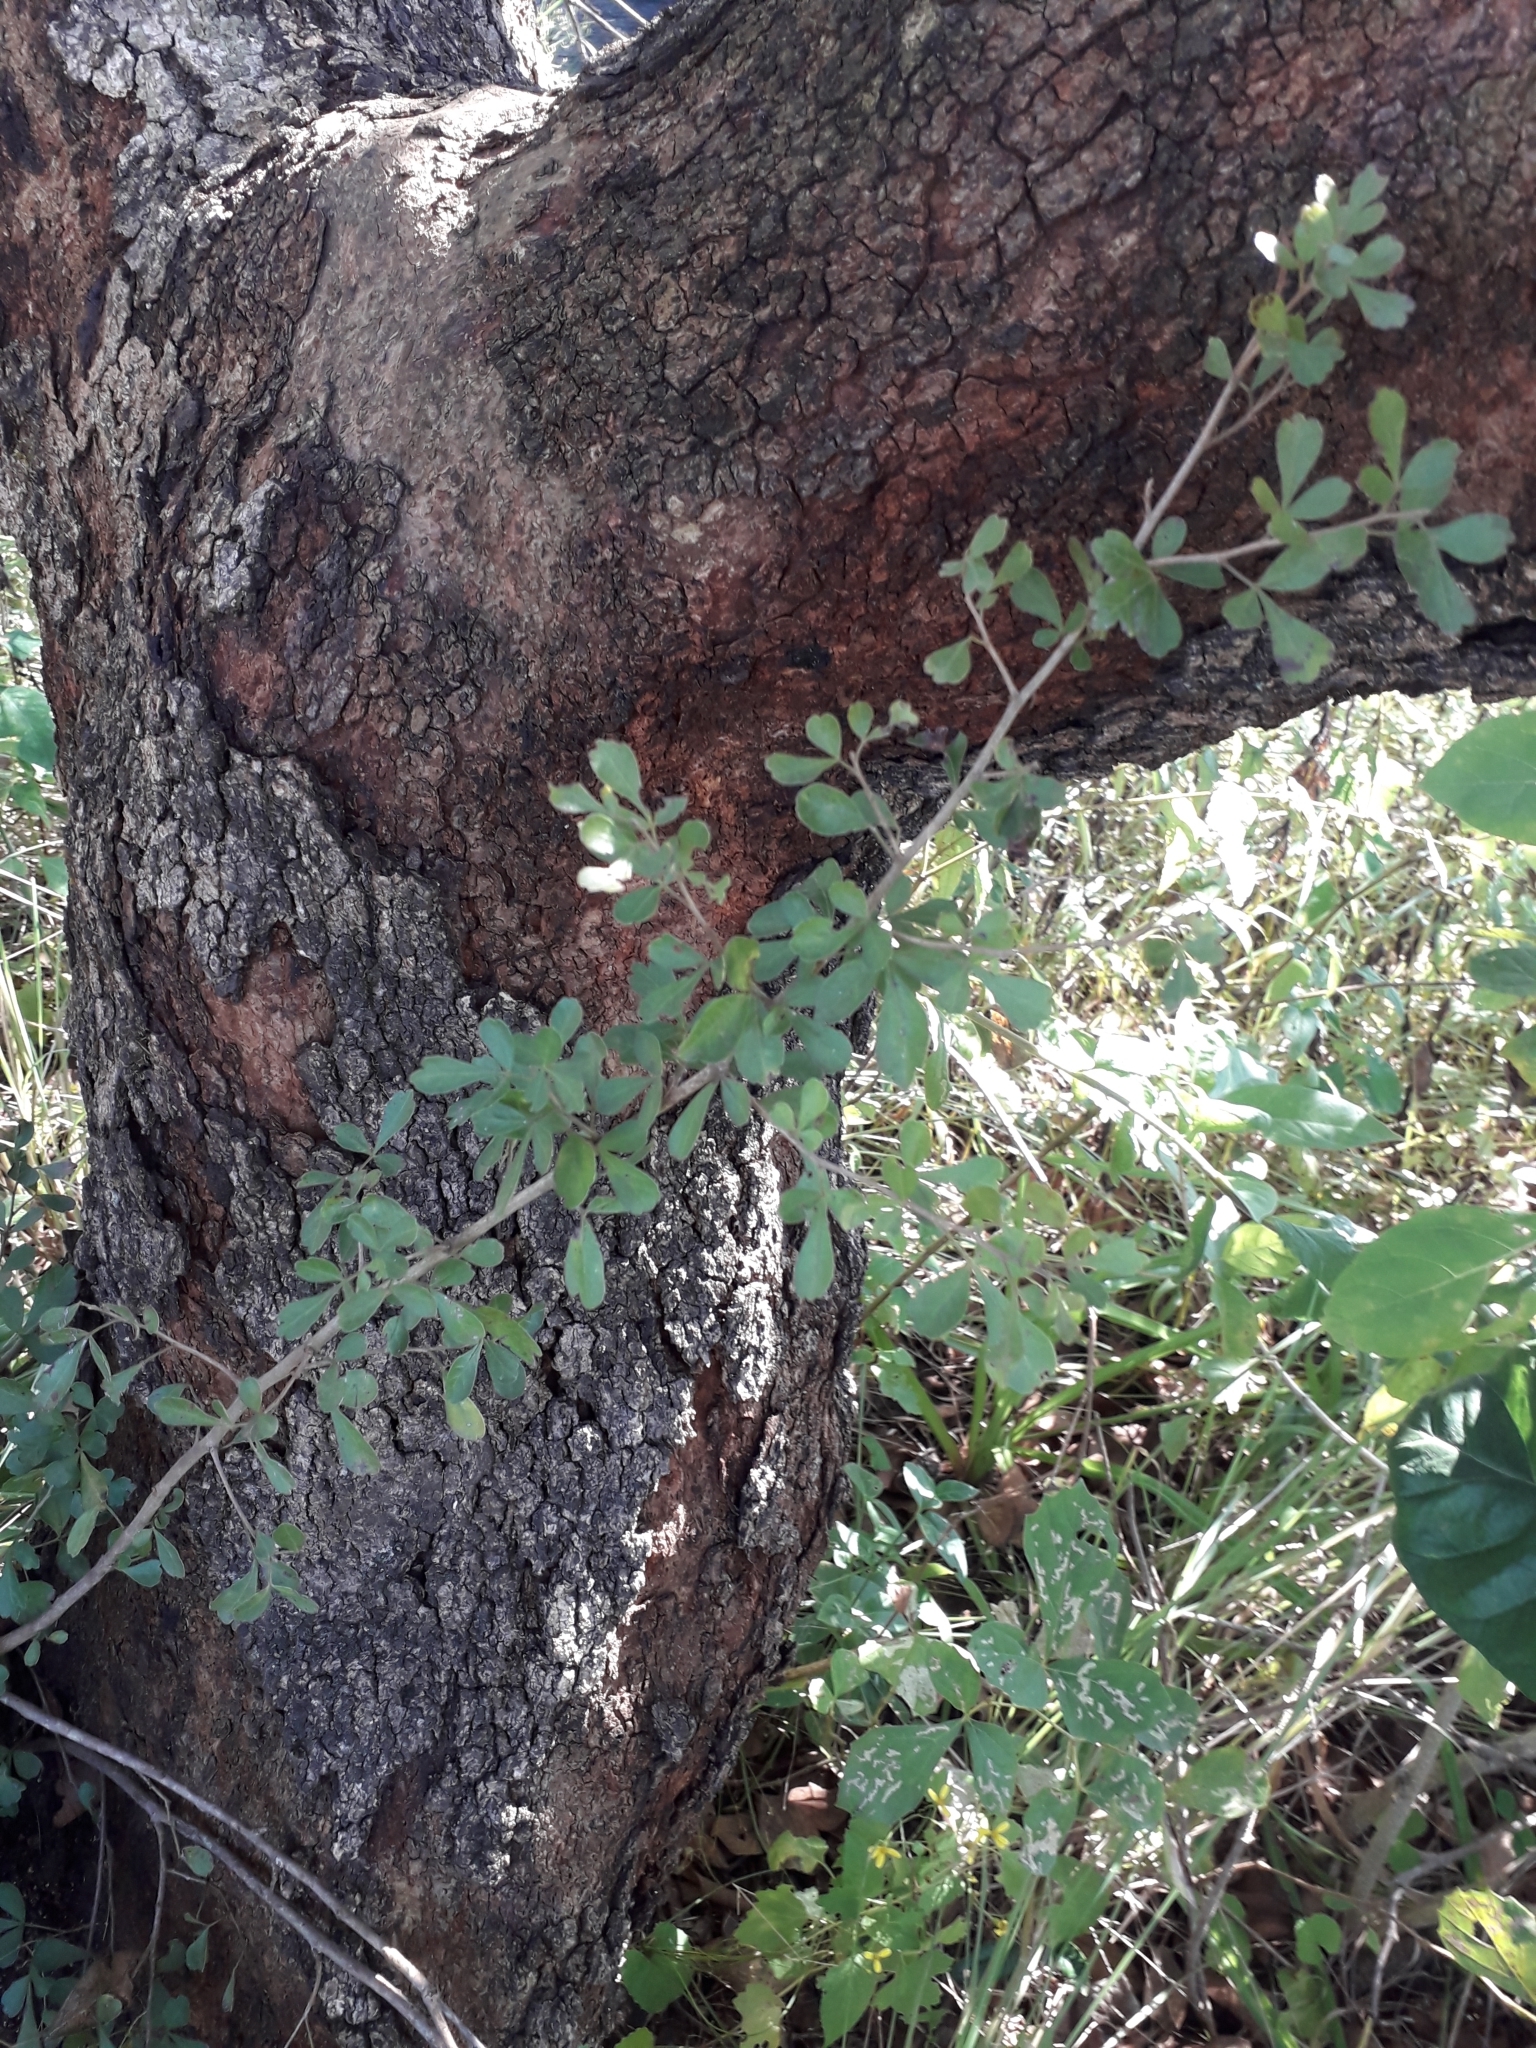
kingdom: Plantae
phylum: Tracheophyta
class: Magnoliopsida
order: Sapindales
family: Anacardiaceae
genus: Searsia
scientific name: Searsia pentheri
